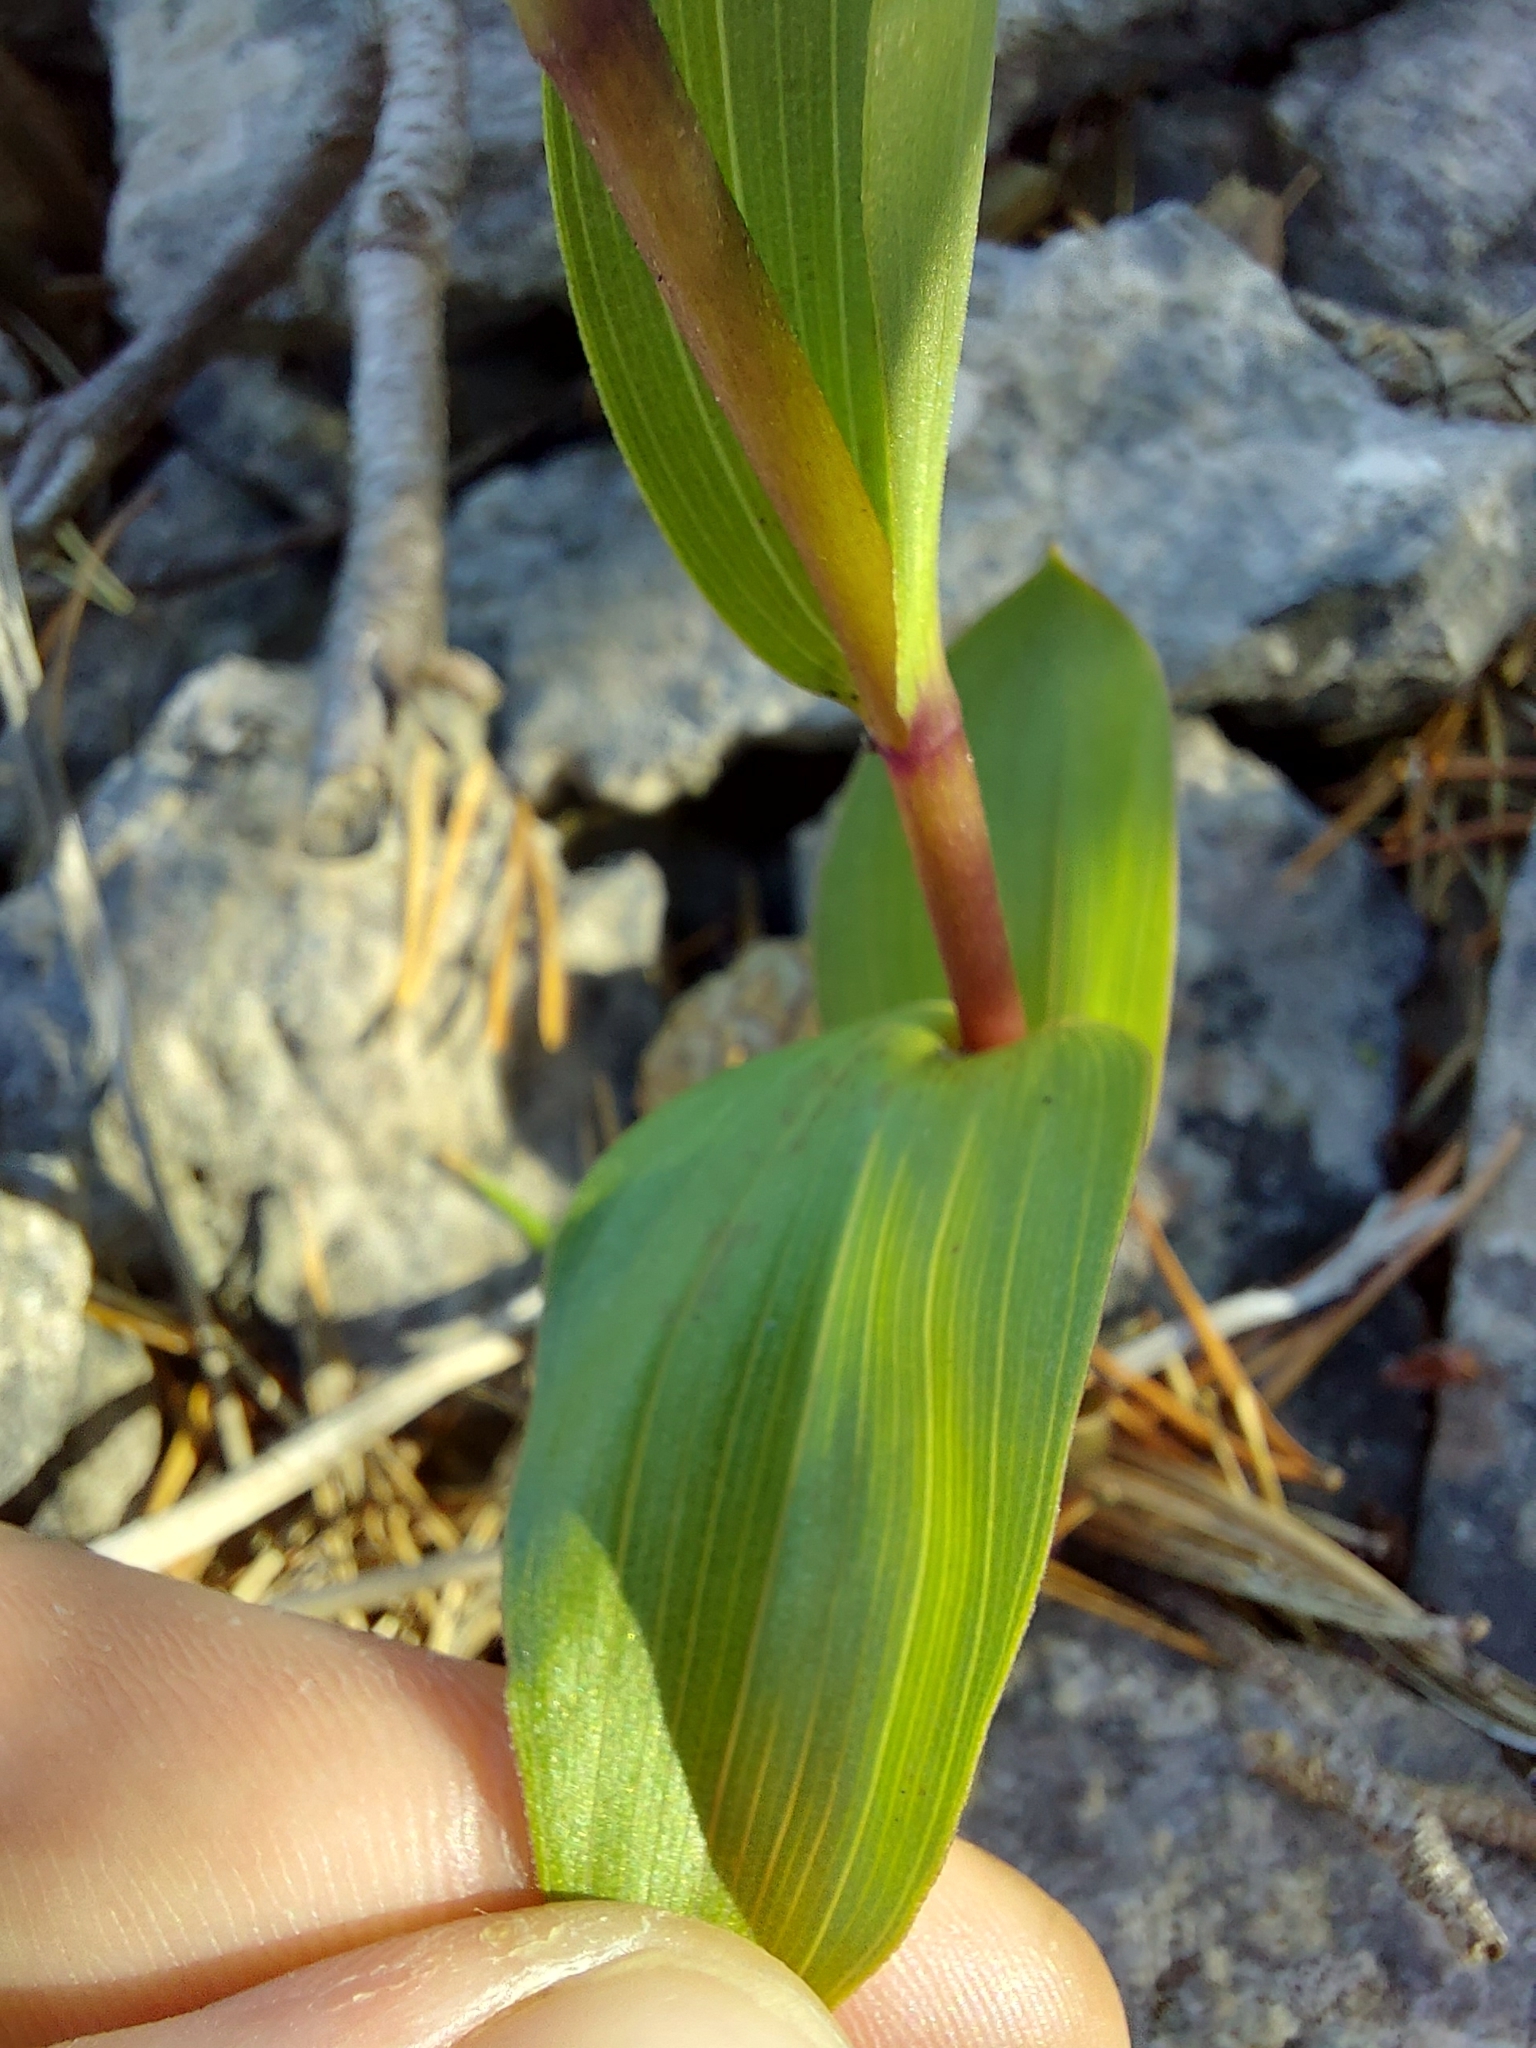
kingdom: Plantae
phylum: Tracheophyta
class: Liliopsida
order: Asparagales
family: Orchidaceae
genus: Epipactis
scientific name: Epipactis atrorubens
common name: Dark-red helleborine
